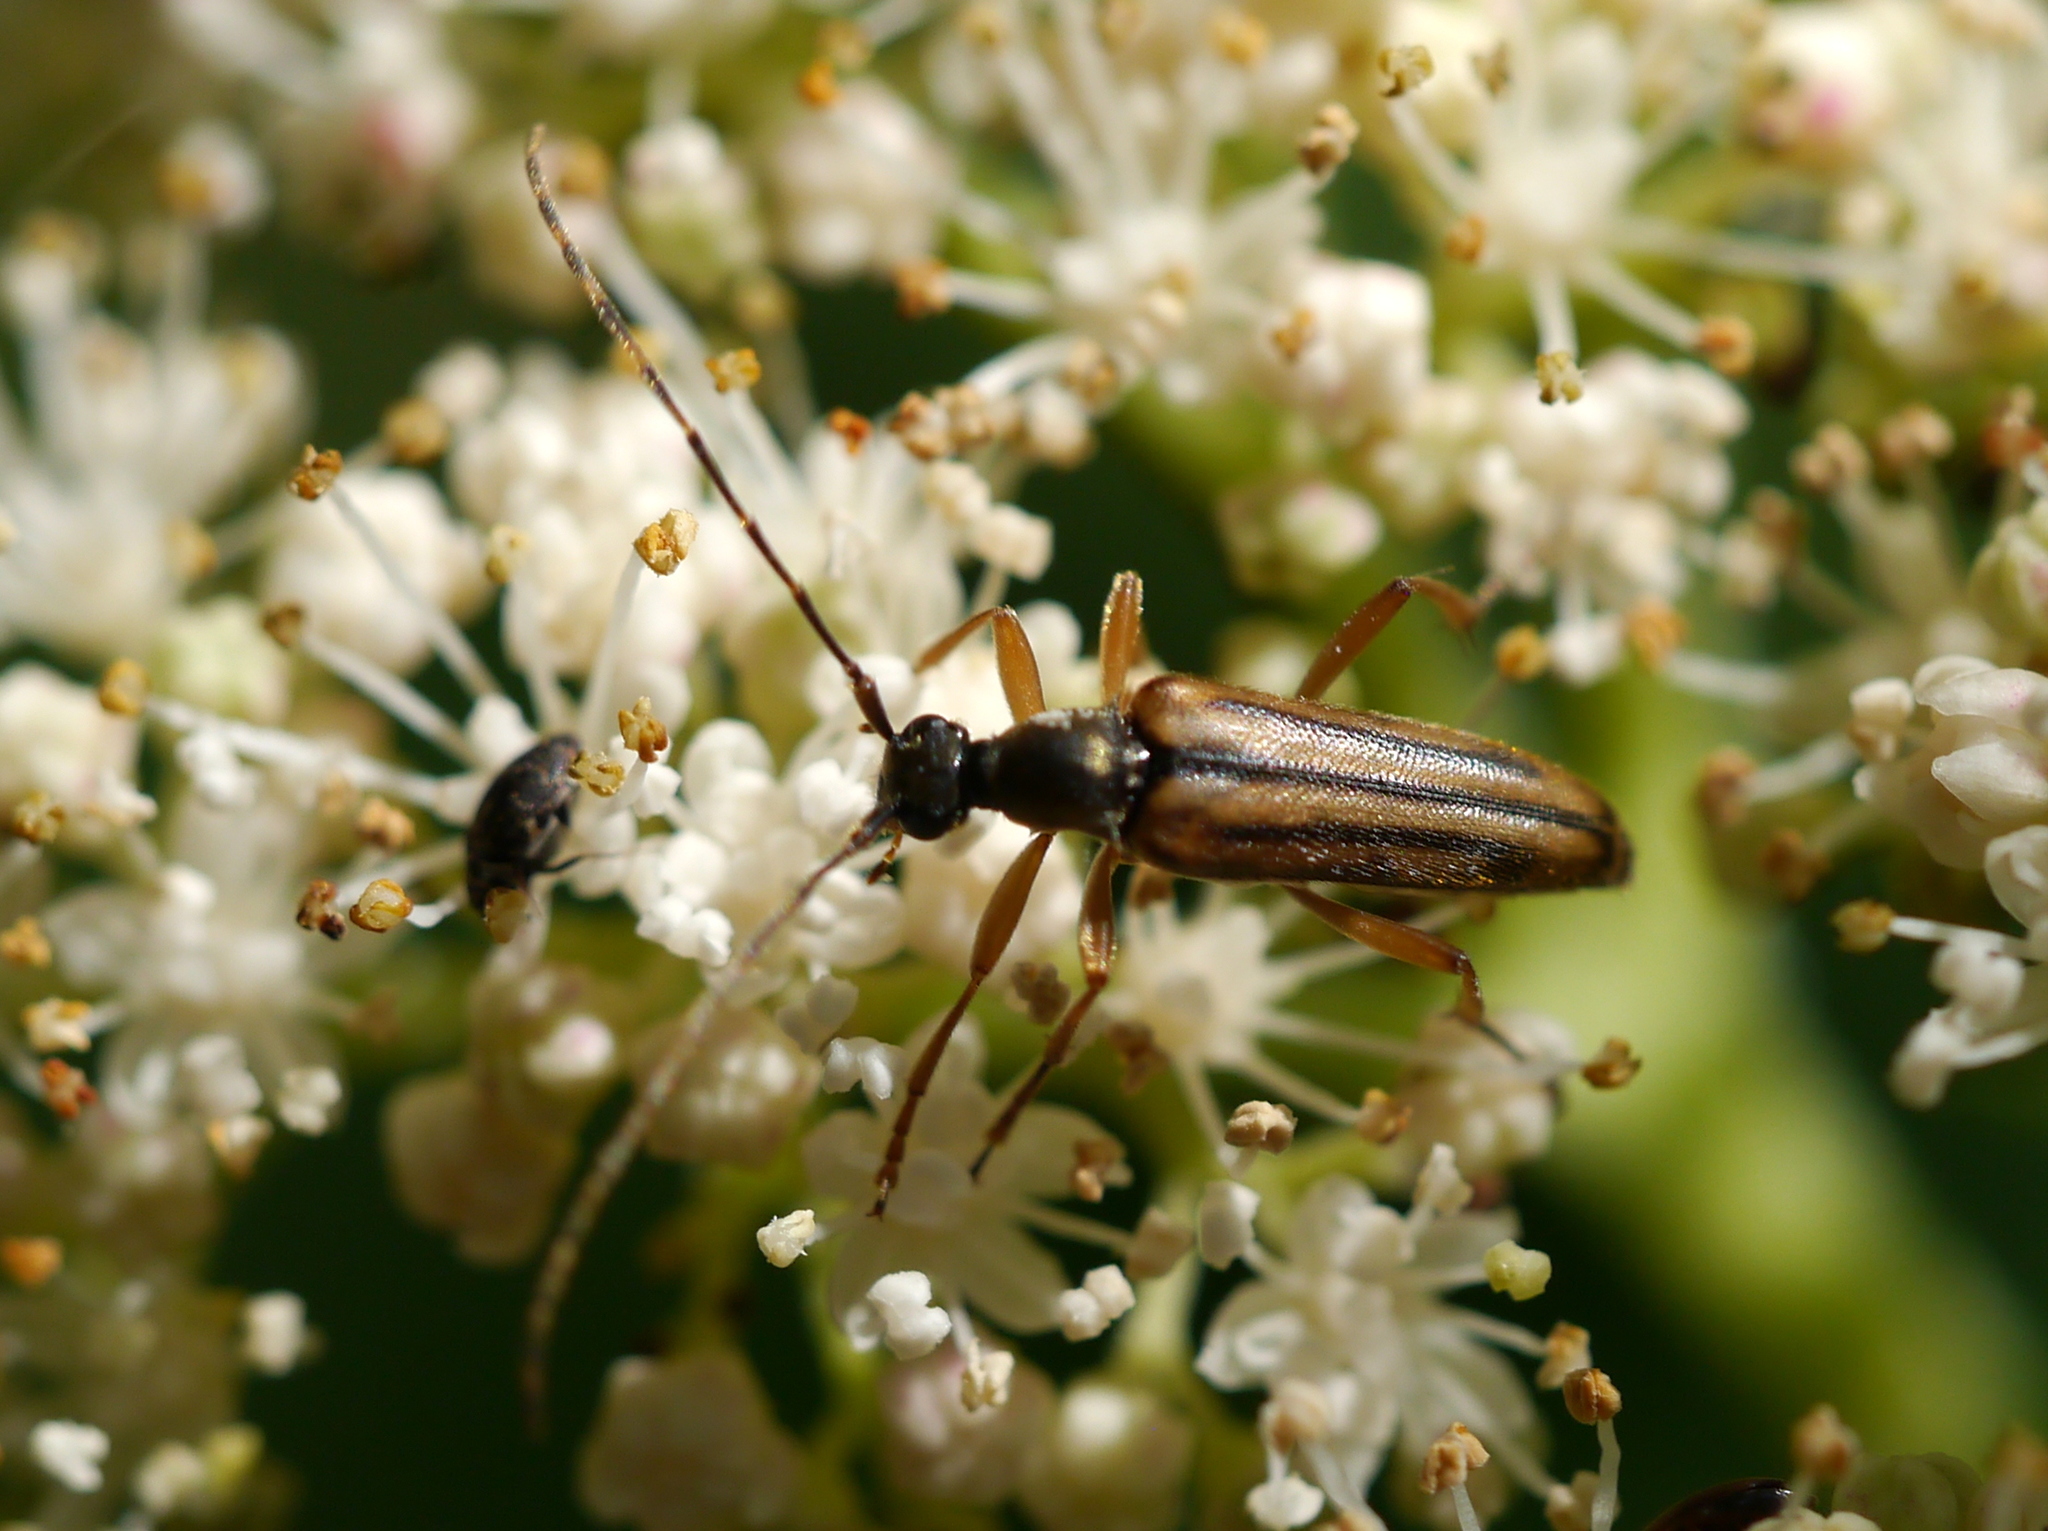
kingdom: Animalia
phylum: Arthropoda
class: Insecta
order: Coleoptera
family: Cerambycidae
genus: Analeptura
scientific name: Analeptura lineola
